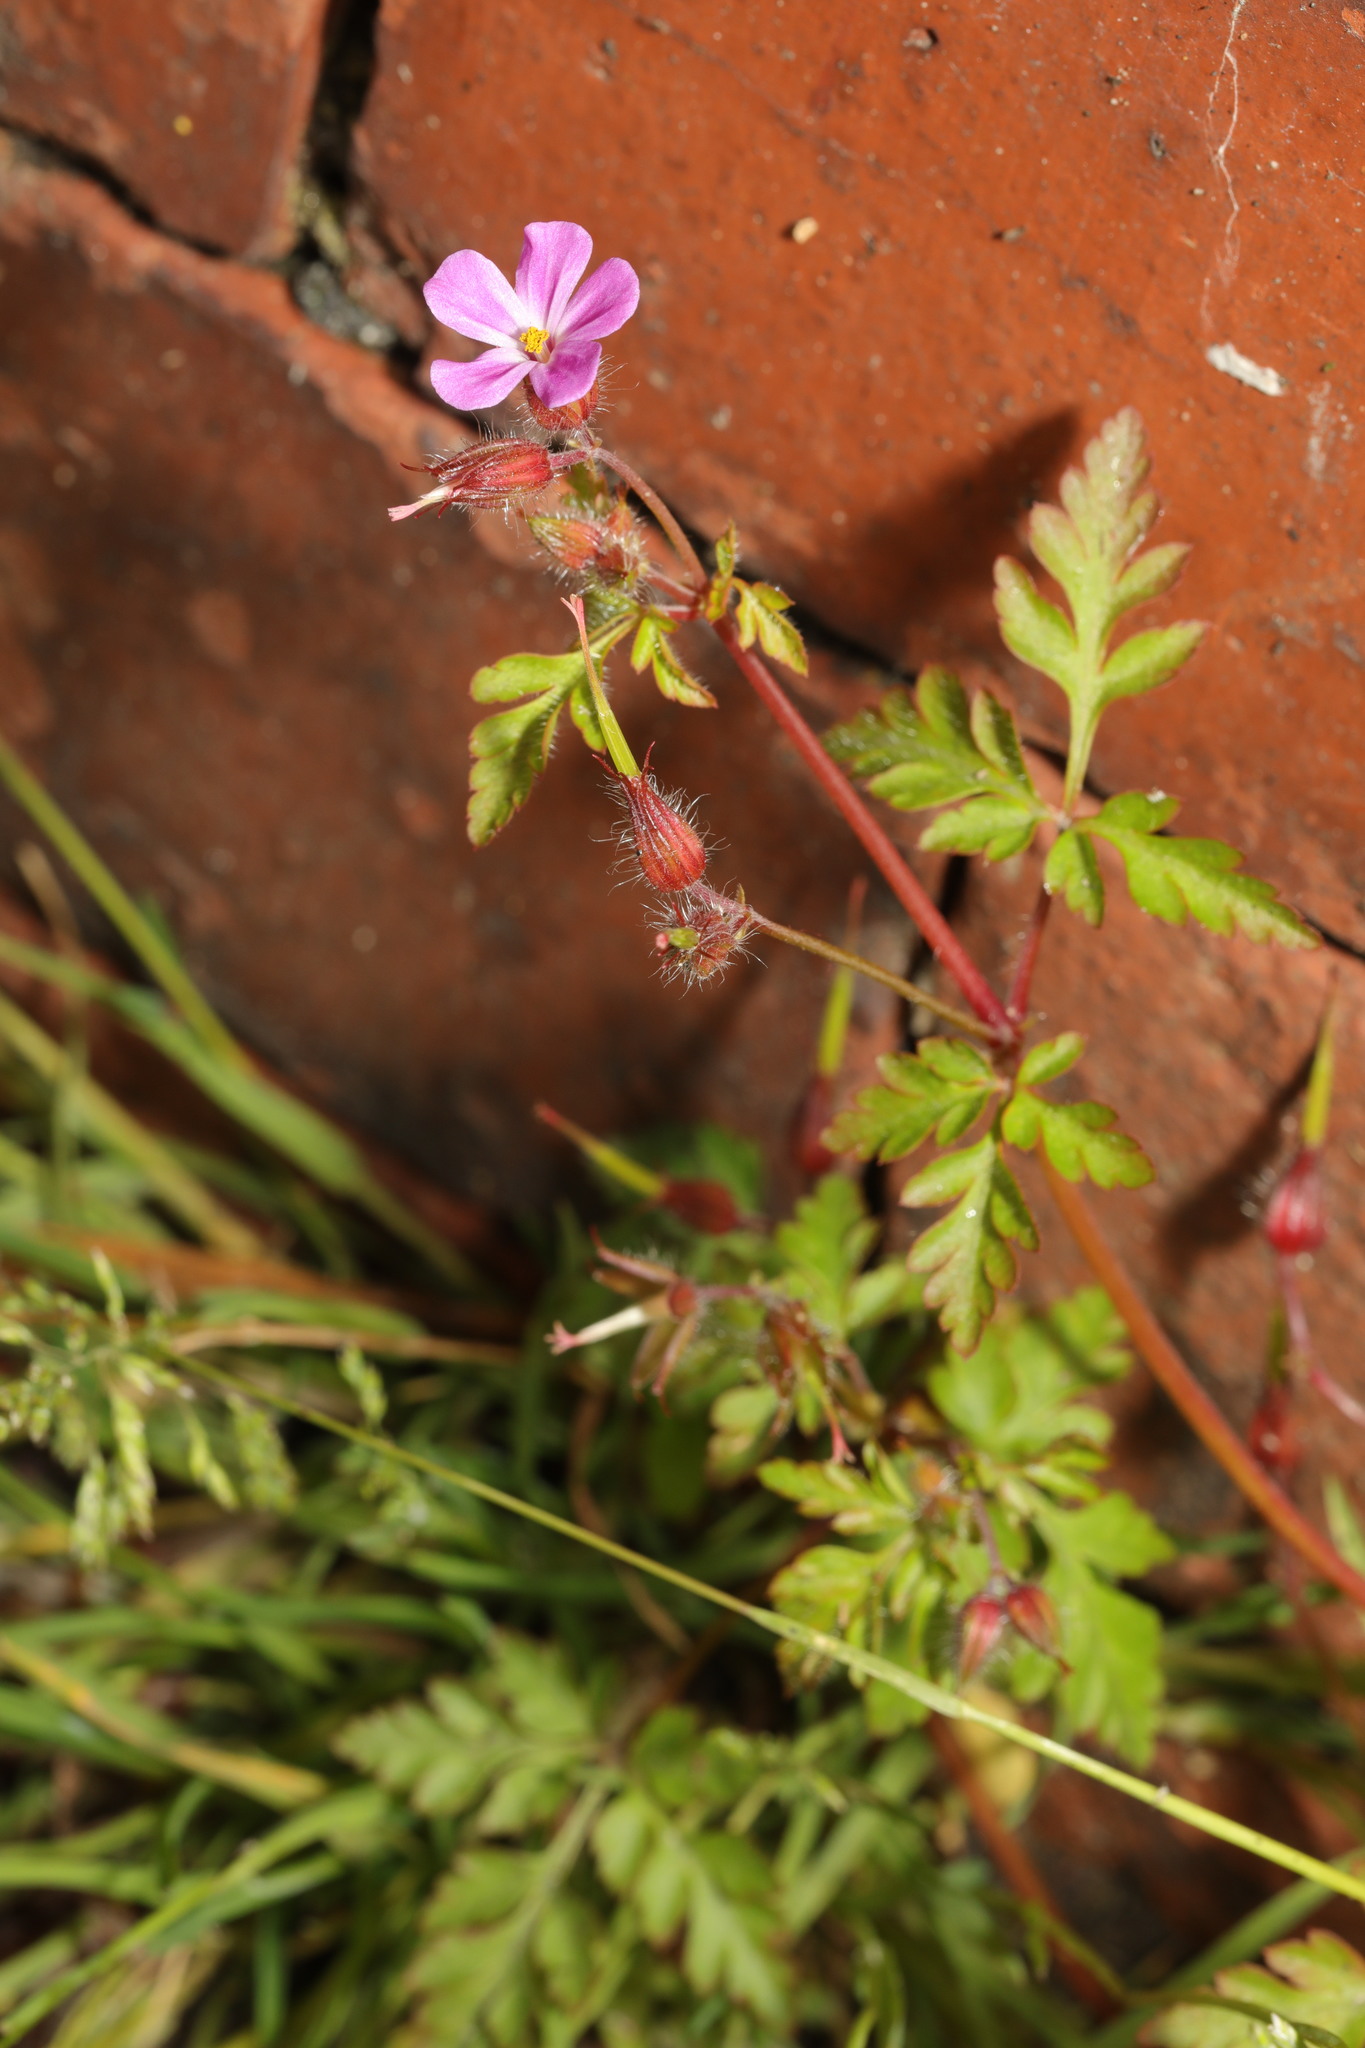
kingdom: Plantae
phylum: Tracheophyta
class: Magnoliopsida
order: Geraniales
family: Geraniaceae
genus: Geranium
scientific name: Geranium robertianum
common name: Herb-robert
